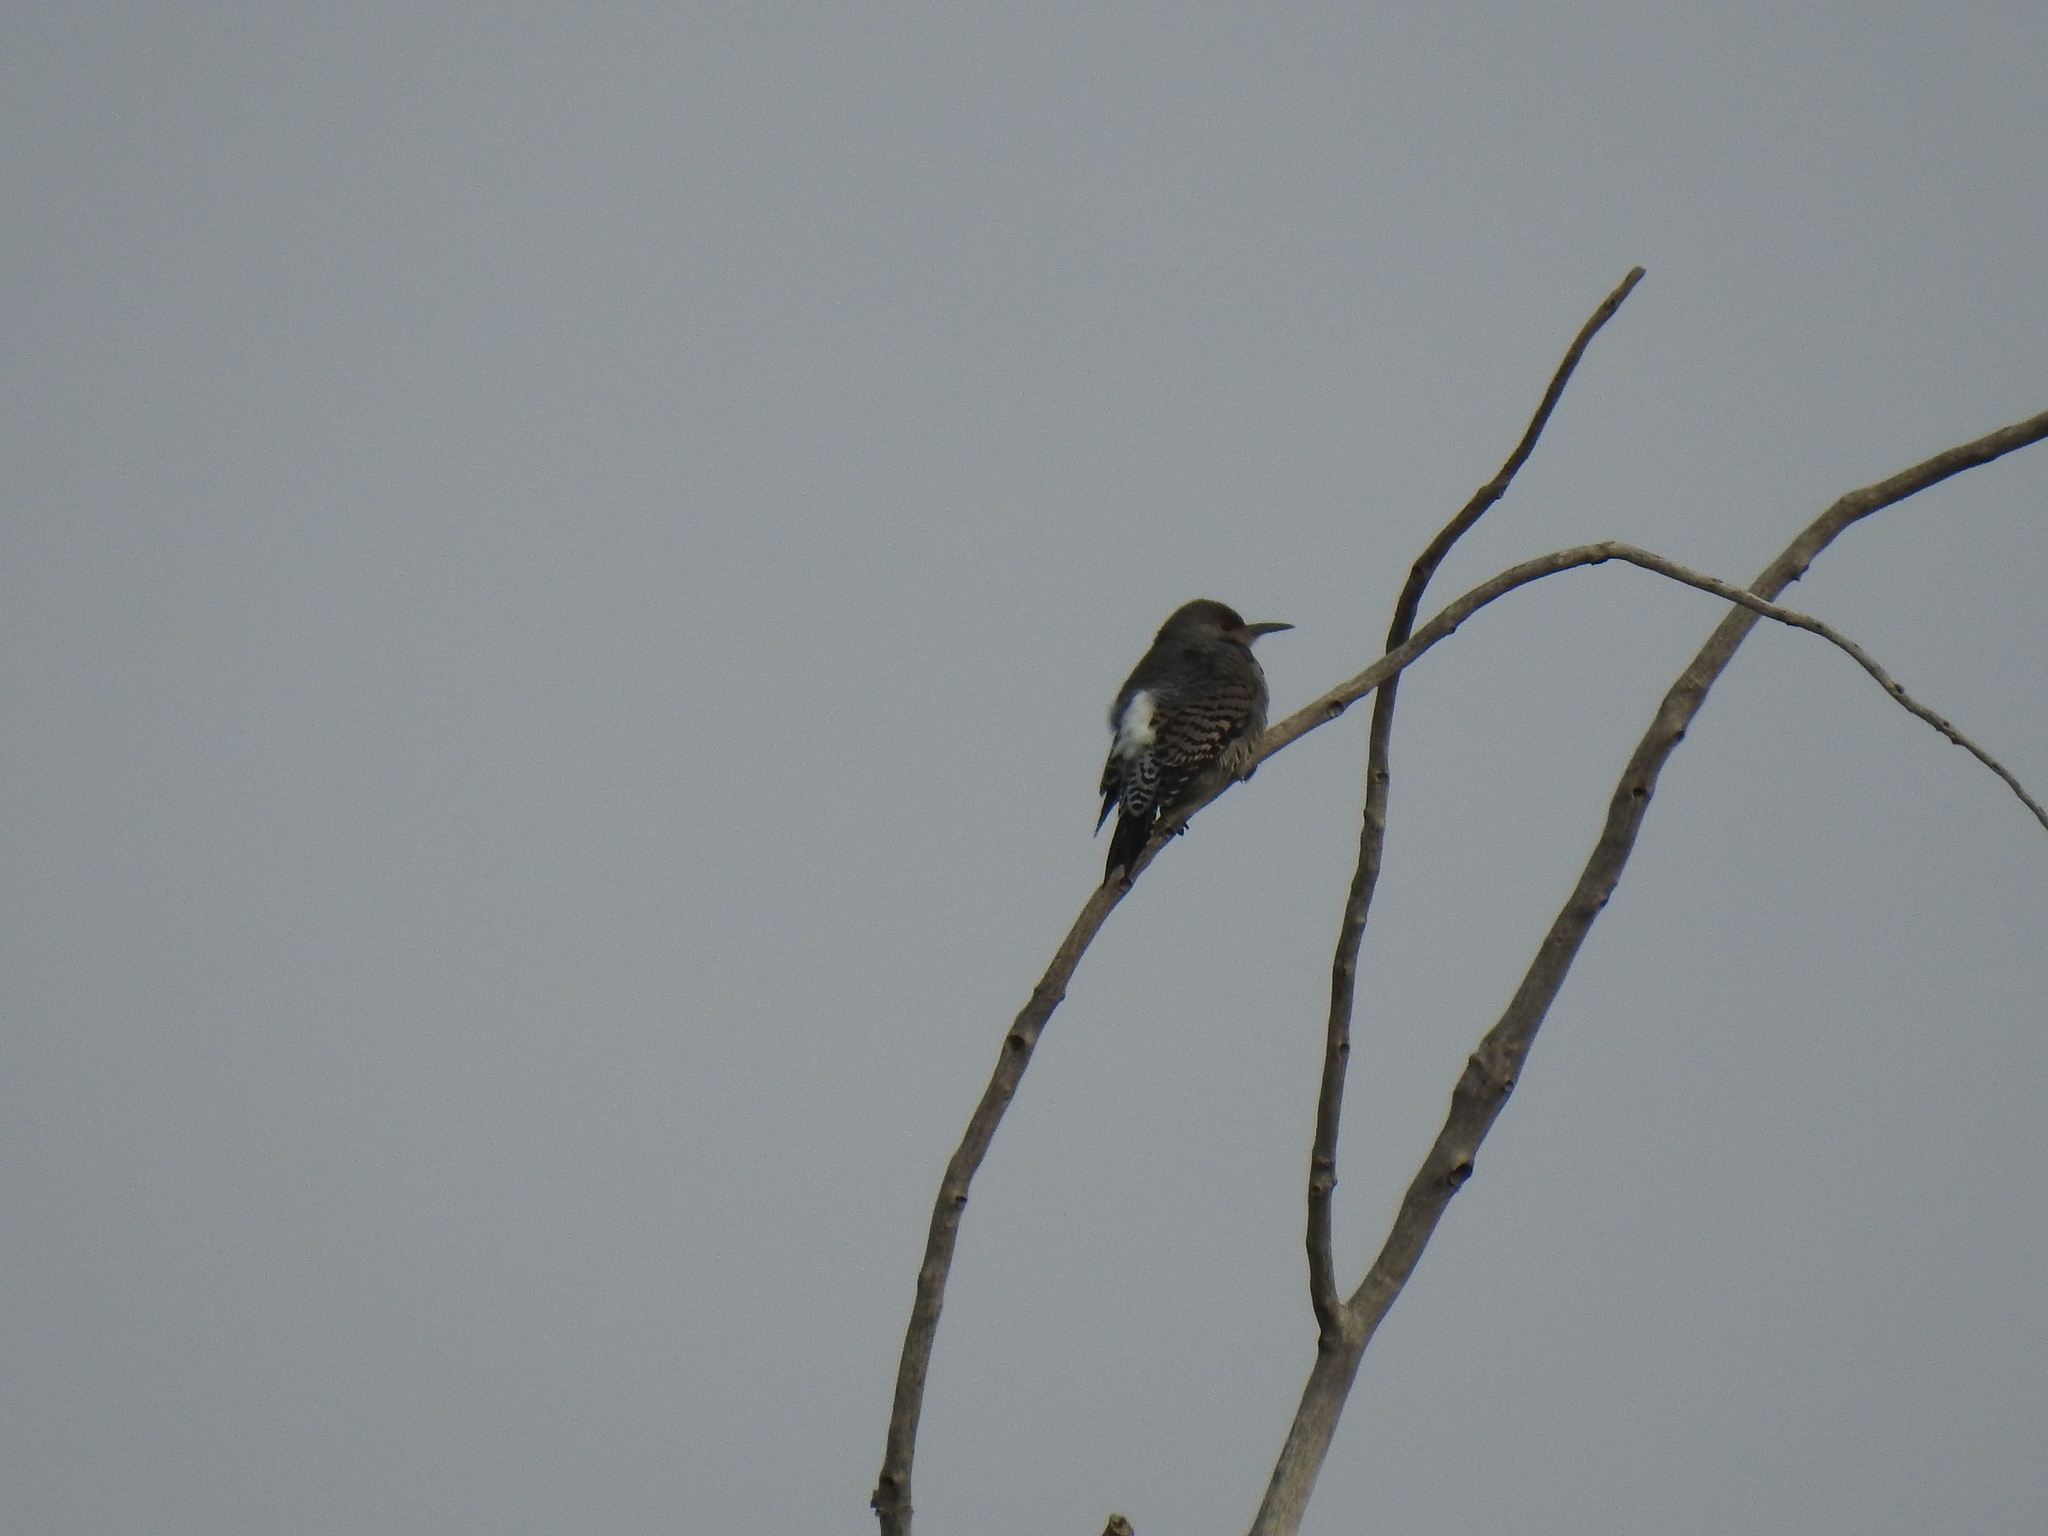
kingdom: Animalia
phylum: Chordata
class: Aves
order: Piciformes
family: Picidae
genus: Colaptes
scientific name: Colaptes auratus
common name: Northern flicker
